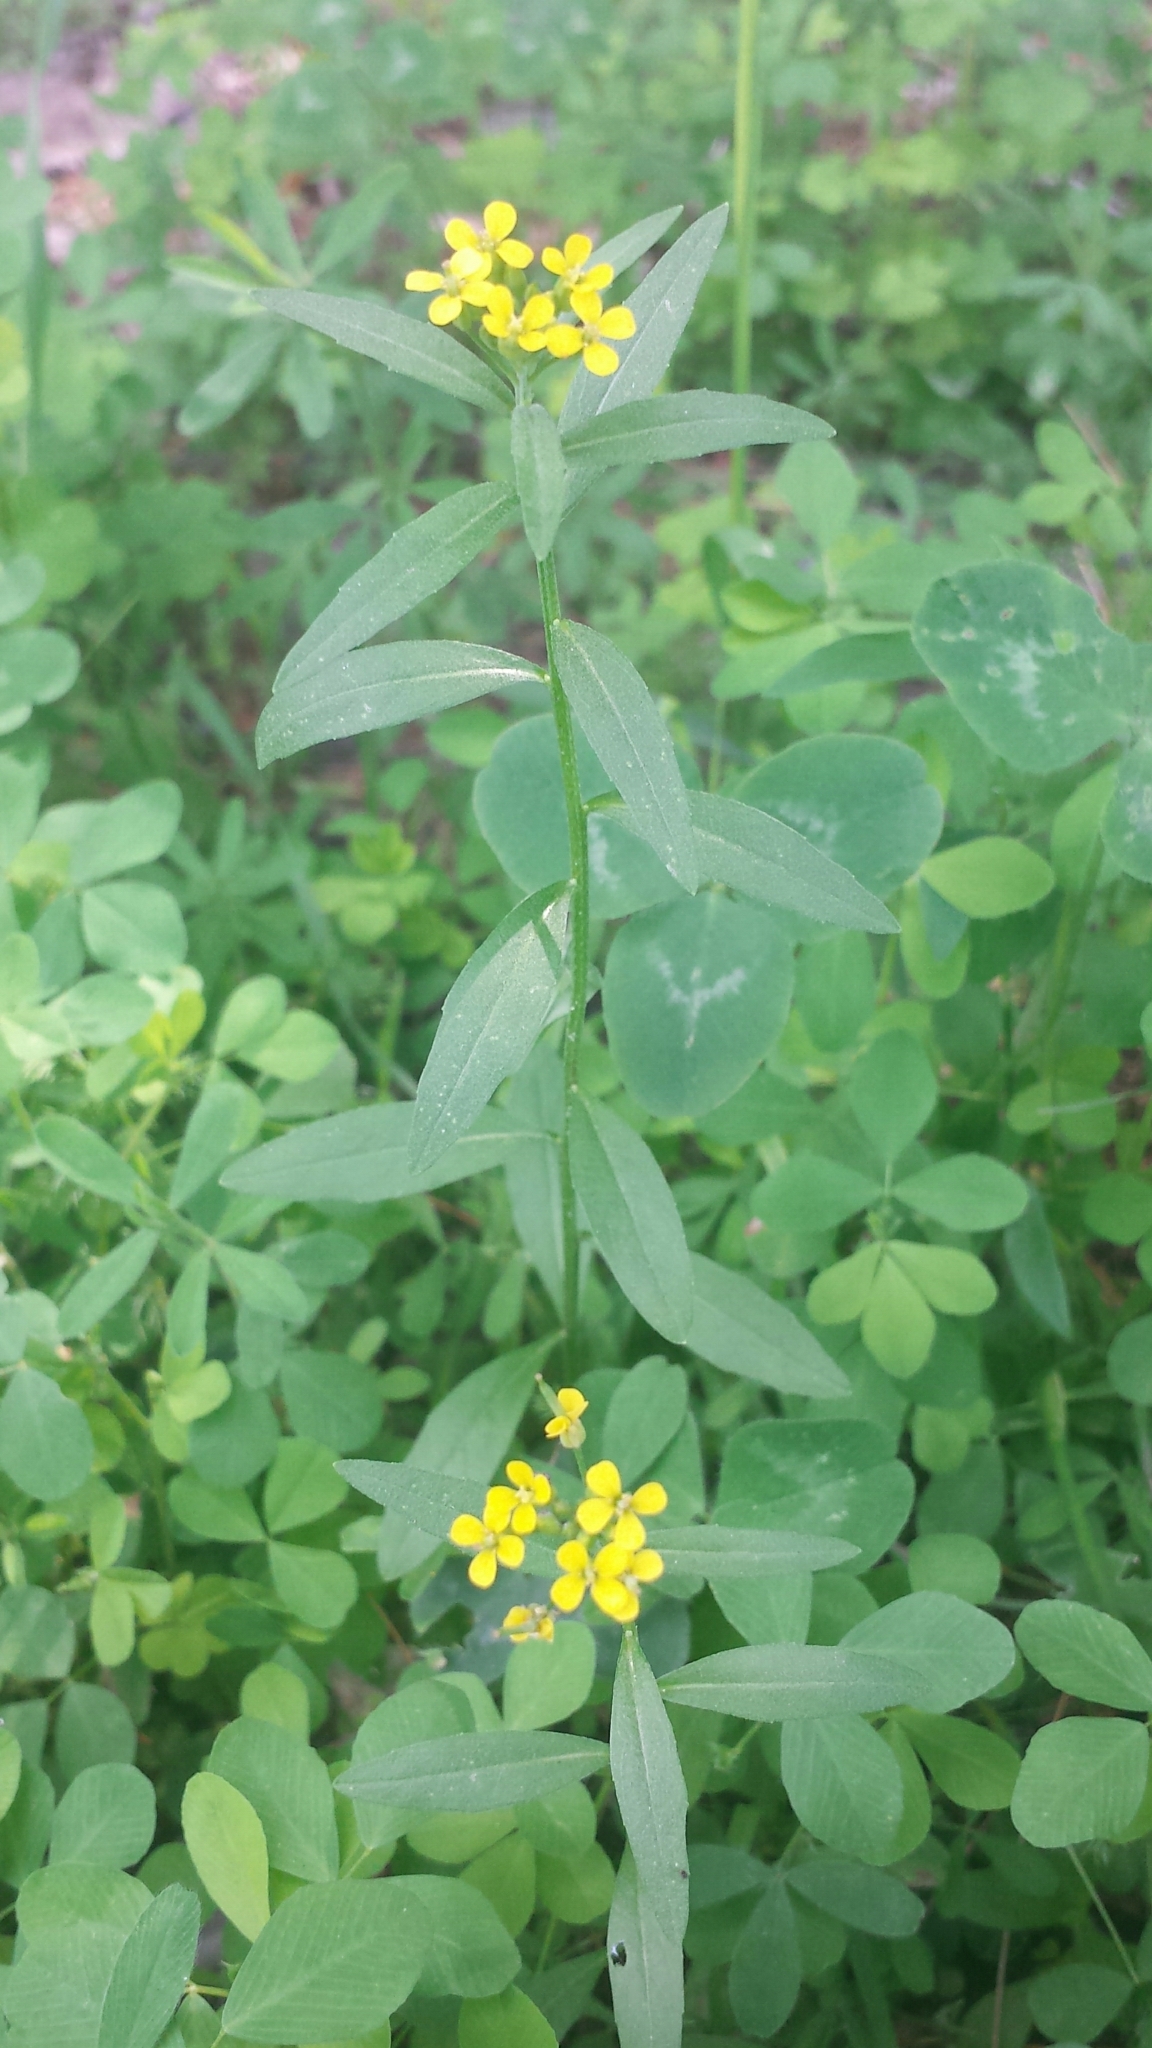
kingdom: Plantae
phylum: Tracheophyta
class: Magnoliopsida
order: Brassicales
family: Brassicaceae
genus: Erysimum
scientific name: Erysimum cheiranthoides
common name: Treacle mustard
